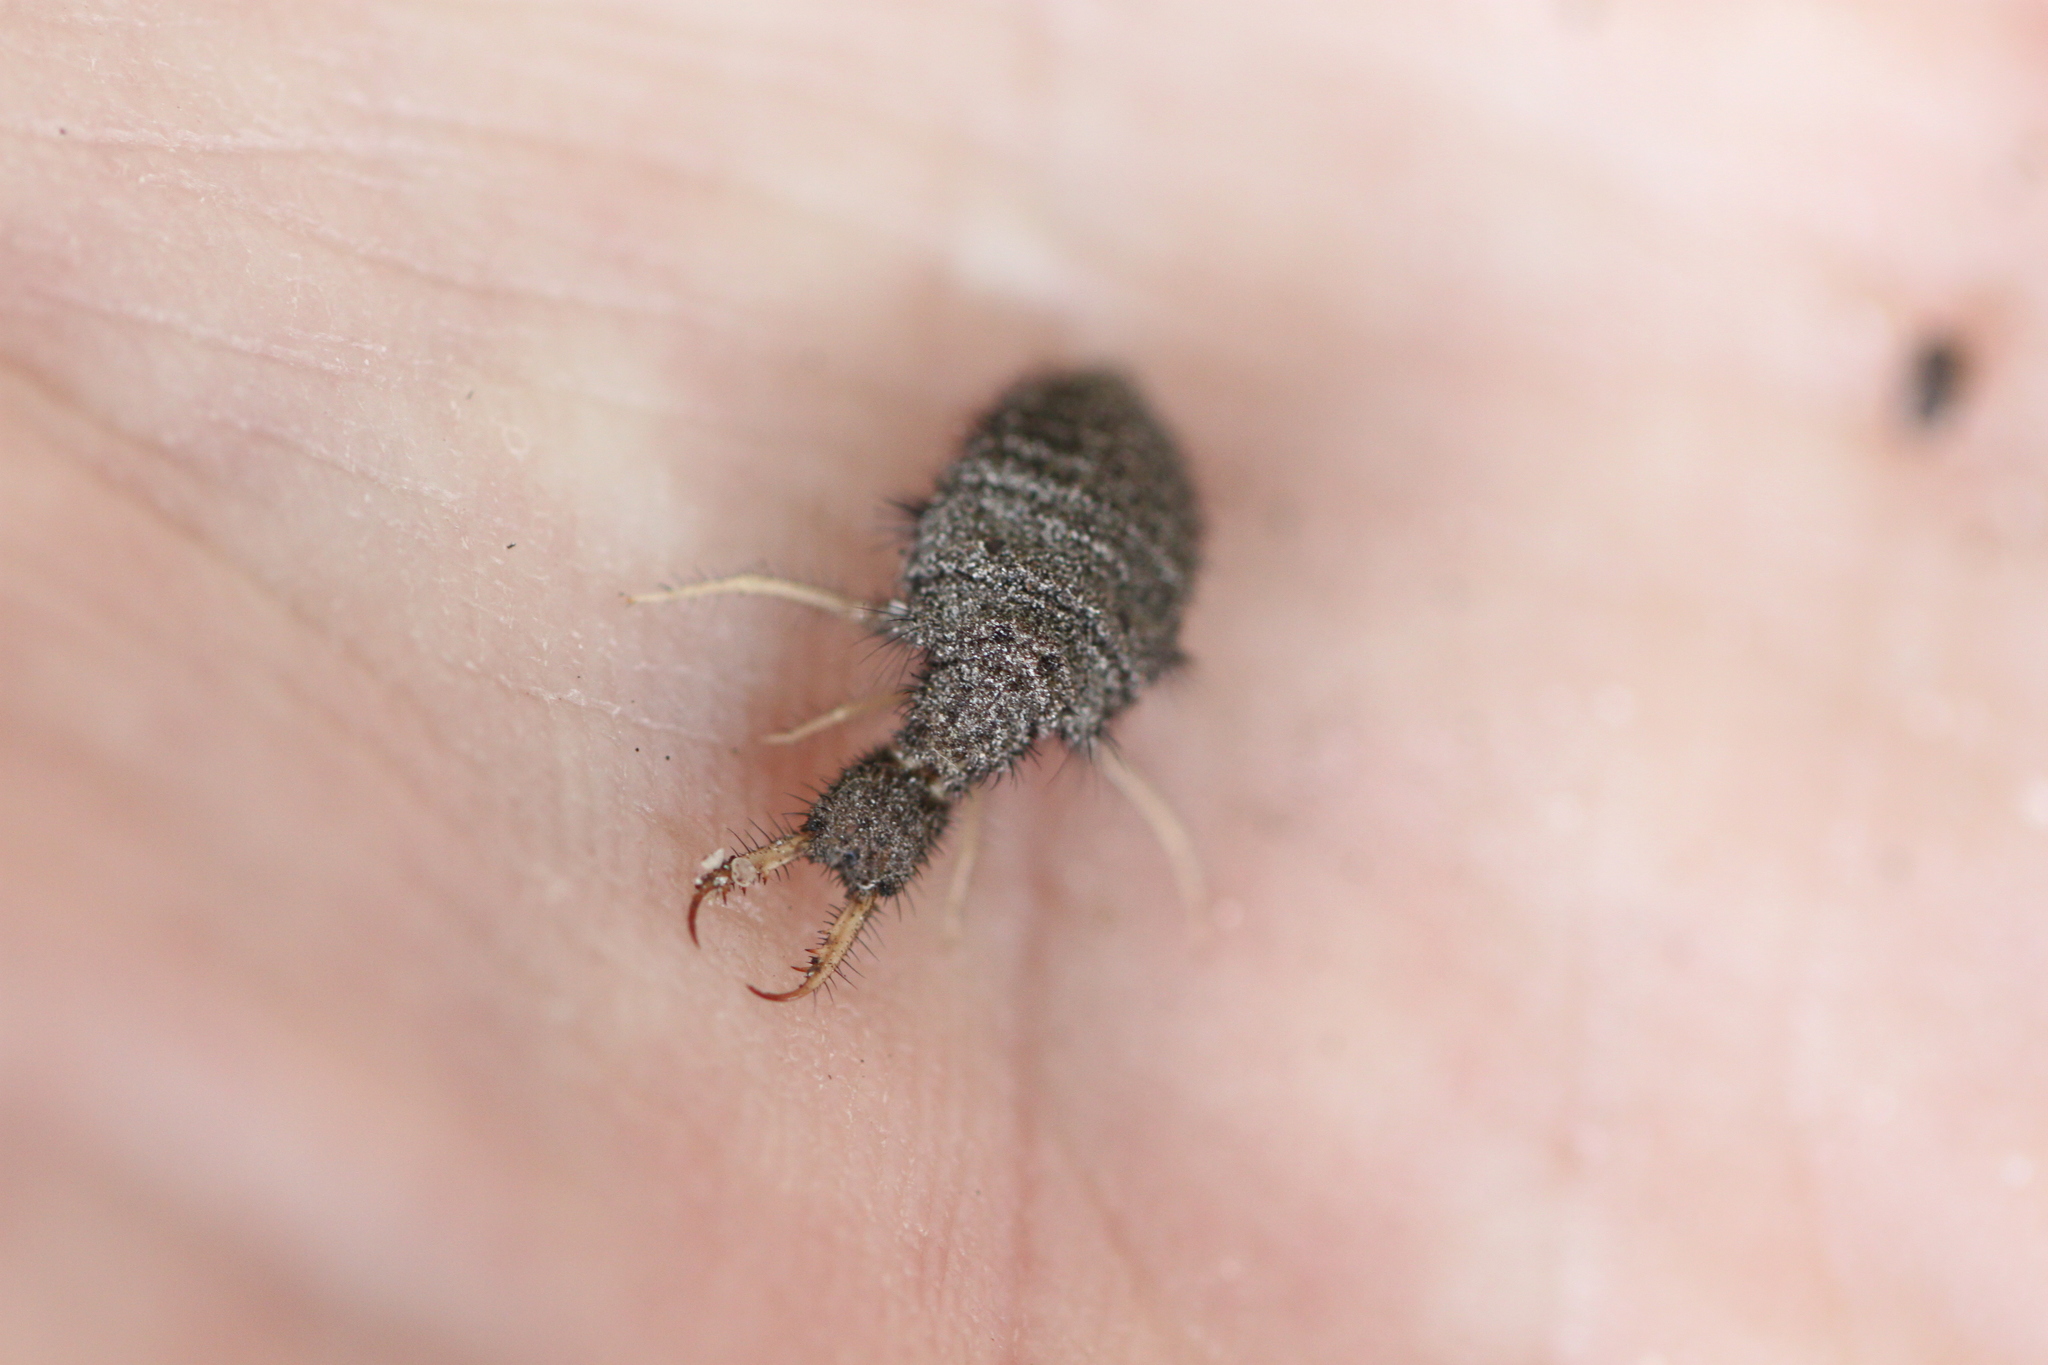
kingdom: Animalia
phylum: Arthropoda
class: Insecta
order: Neuroptera
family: Myrmeleontidae
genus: Myrmeleon
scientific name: Myrmeleon formicarius
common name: Ant-lion
